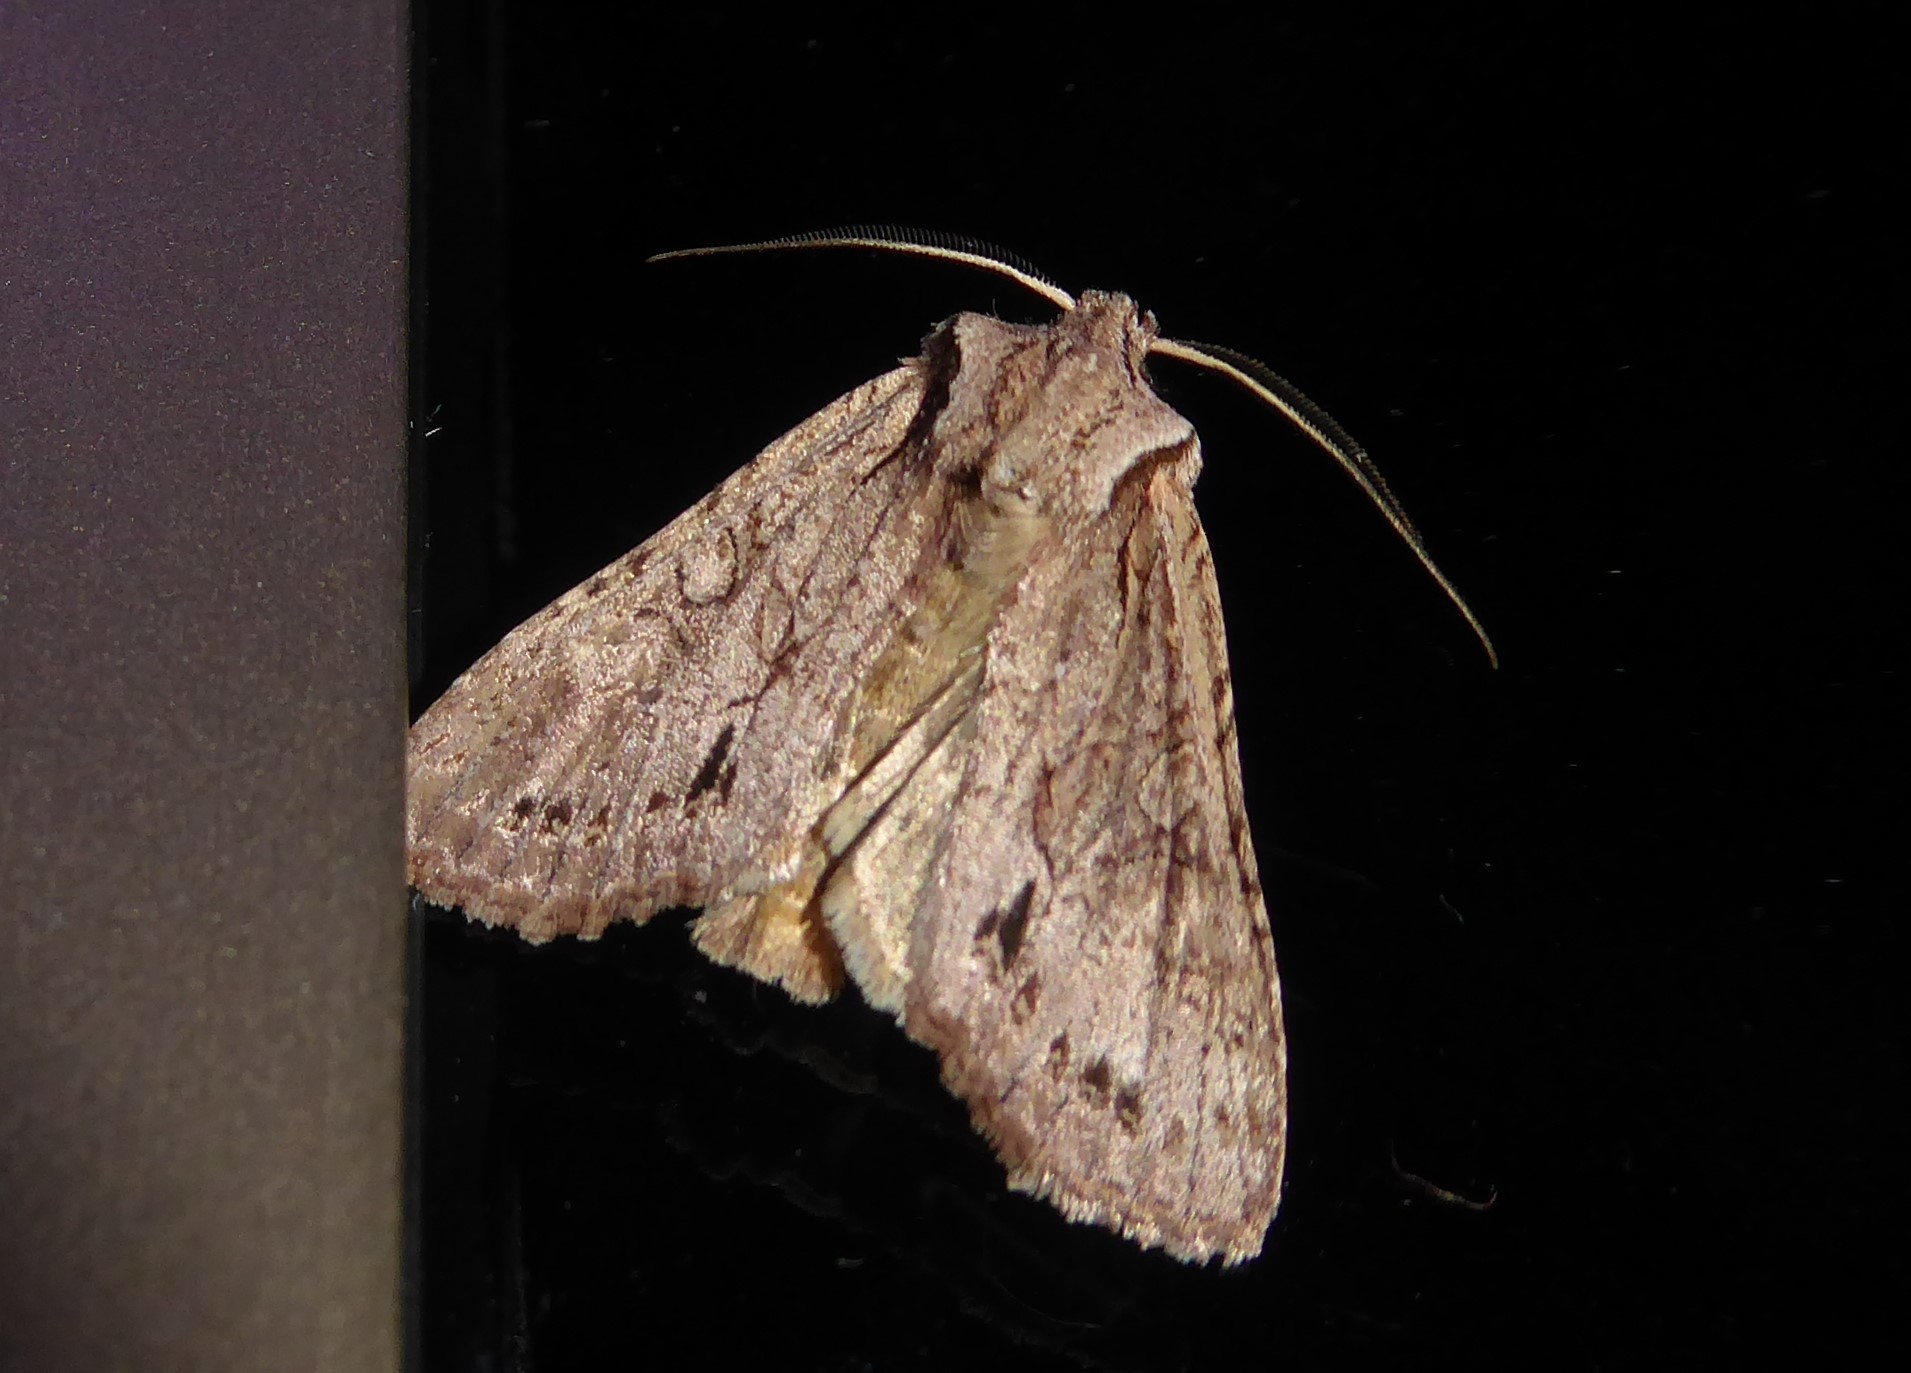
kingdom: Animalia
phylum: Arthropoda
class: Insecta
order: Lepidoptera
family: Noctuidae
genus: Ichneutica
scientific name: Ichneutica
